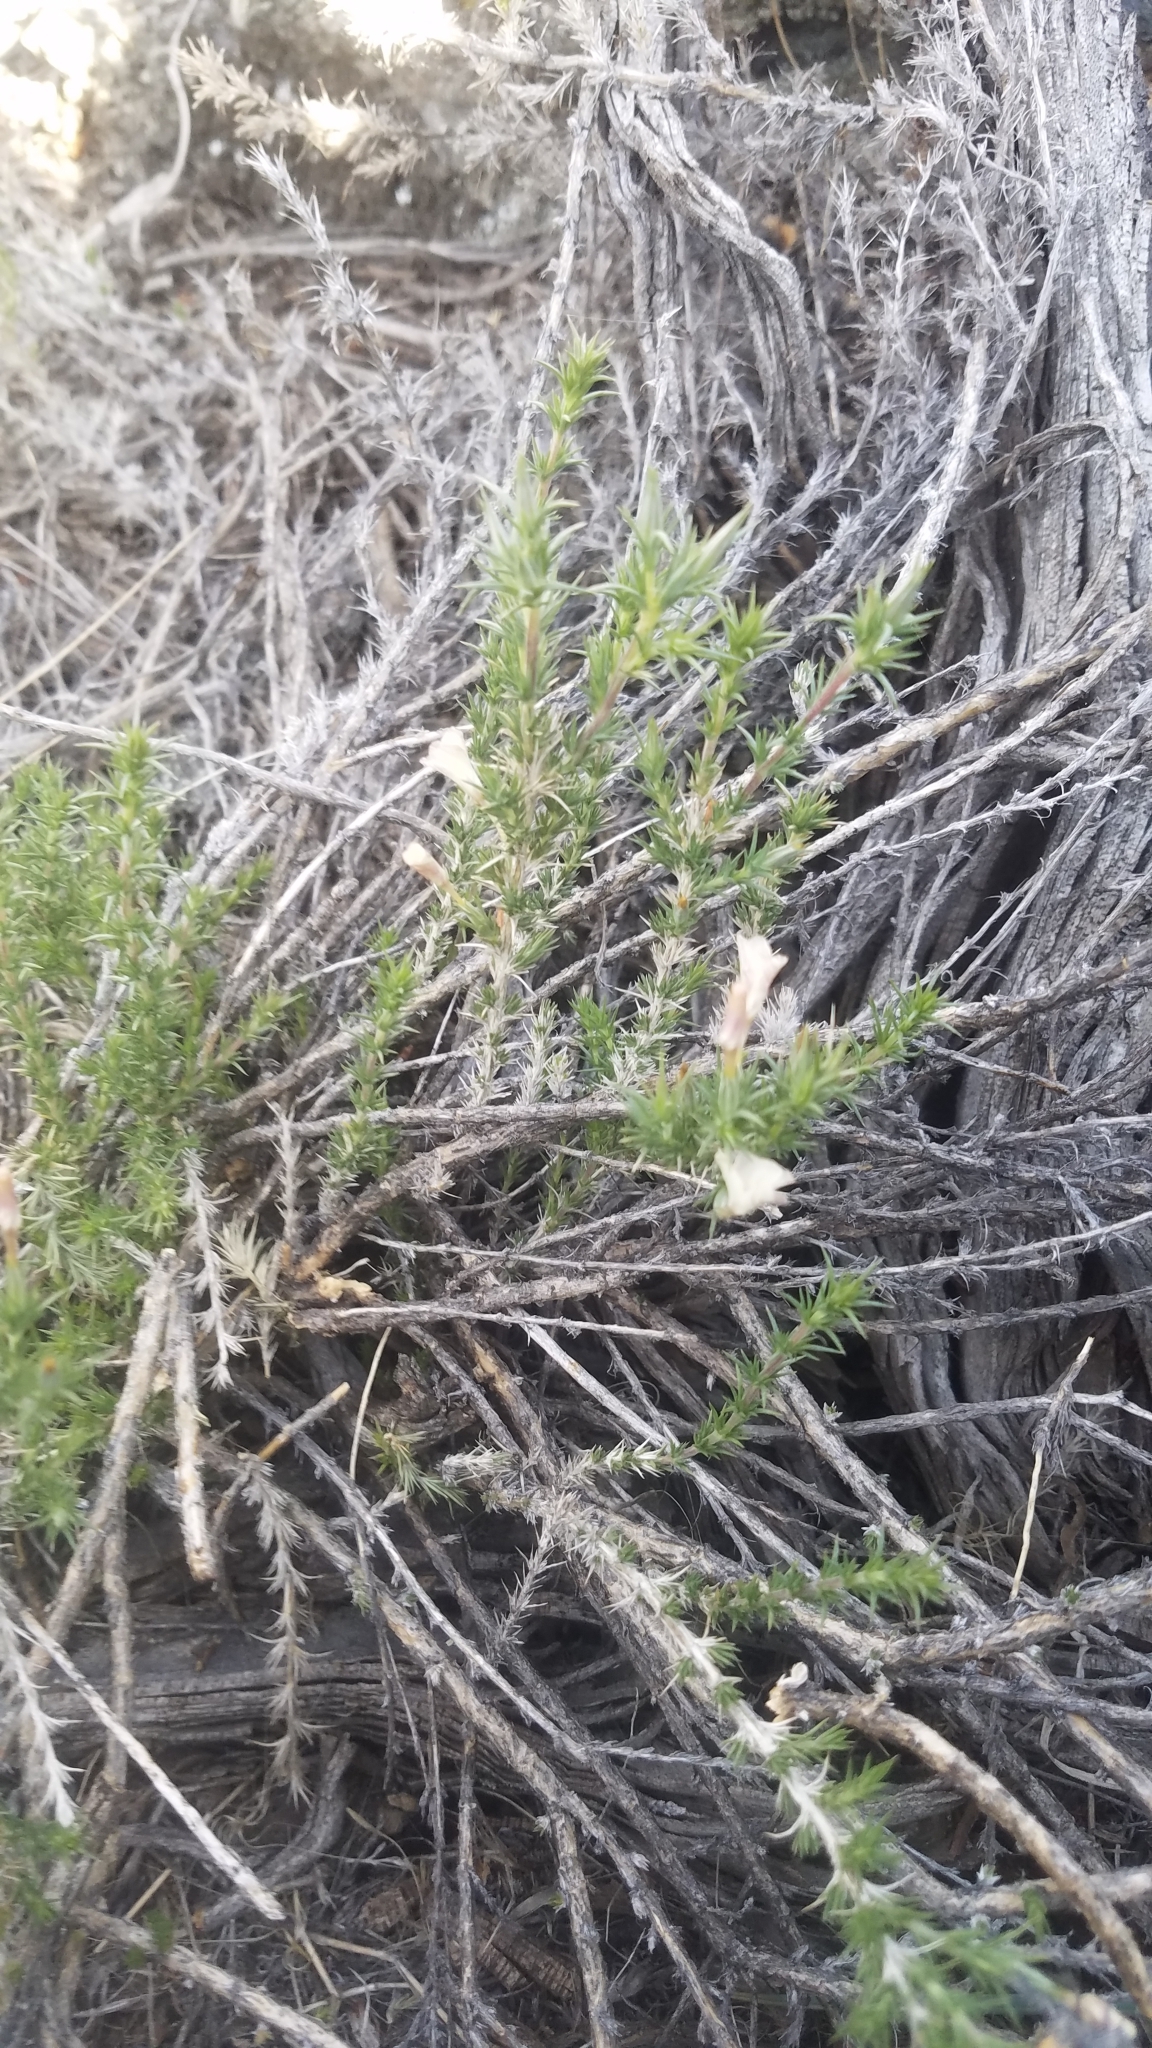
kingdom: Plantae
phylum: Tracheophyta
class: Magnoliopsida
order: Ericales
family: Polemoniaceae
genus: Linanthus
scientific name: Linanthus pungens
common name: Granite prickly phlox
